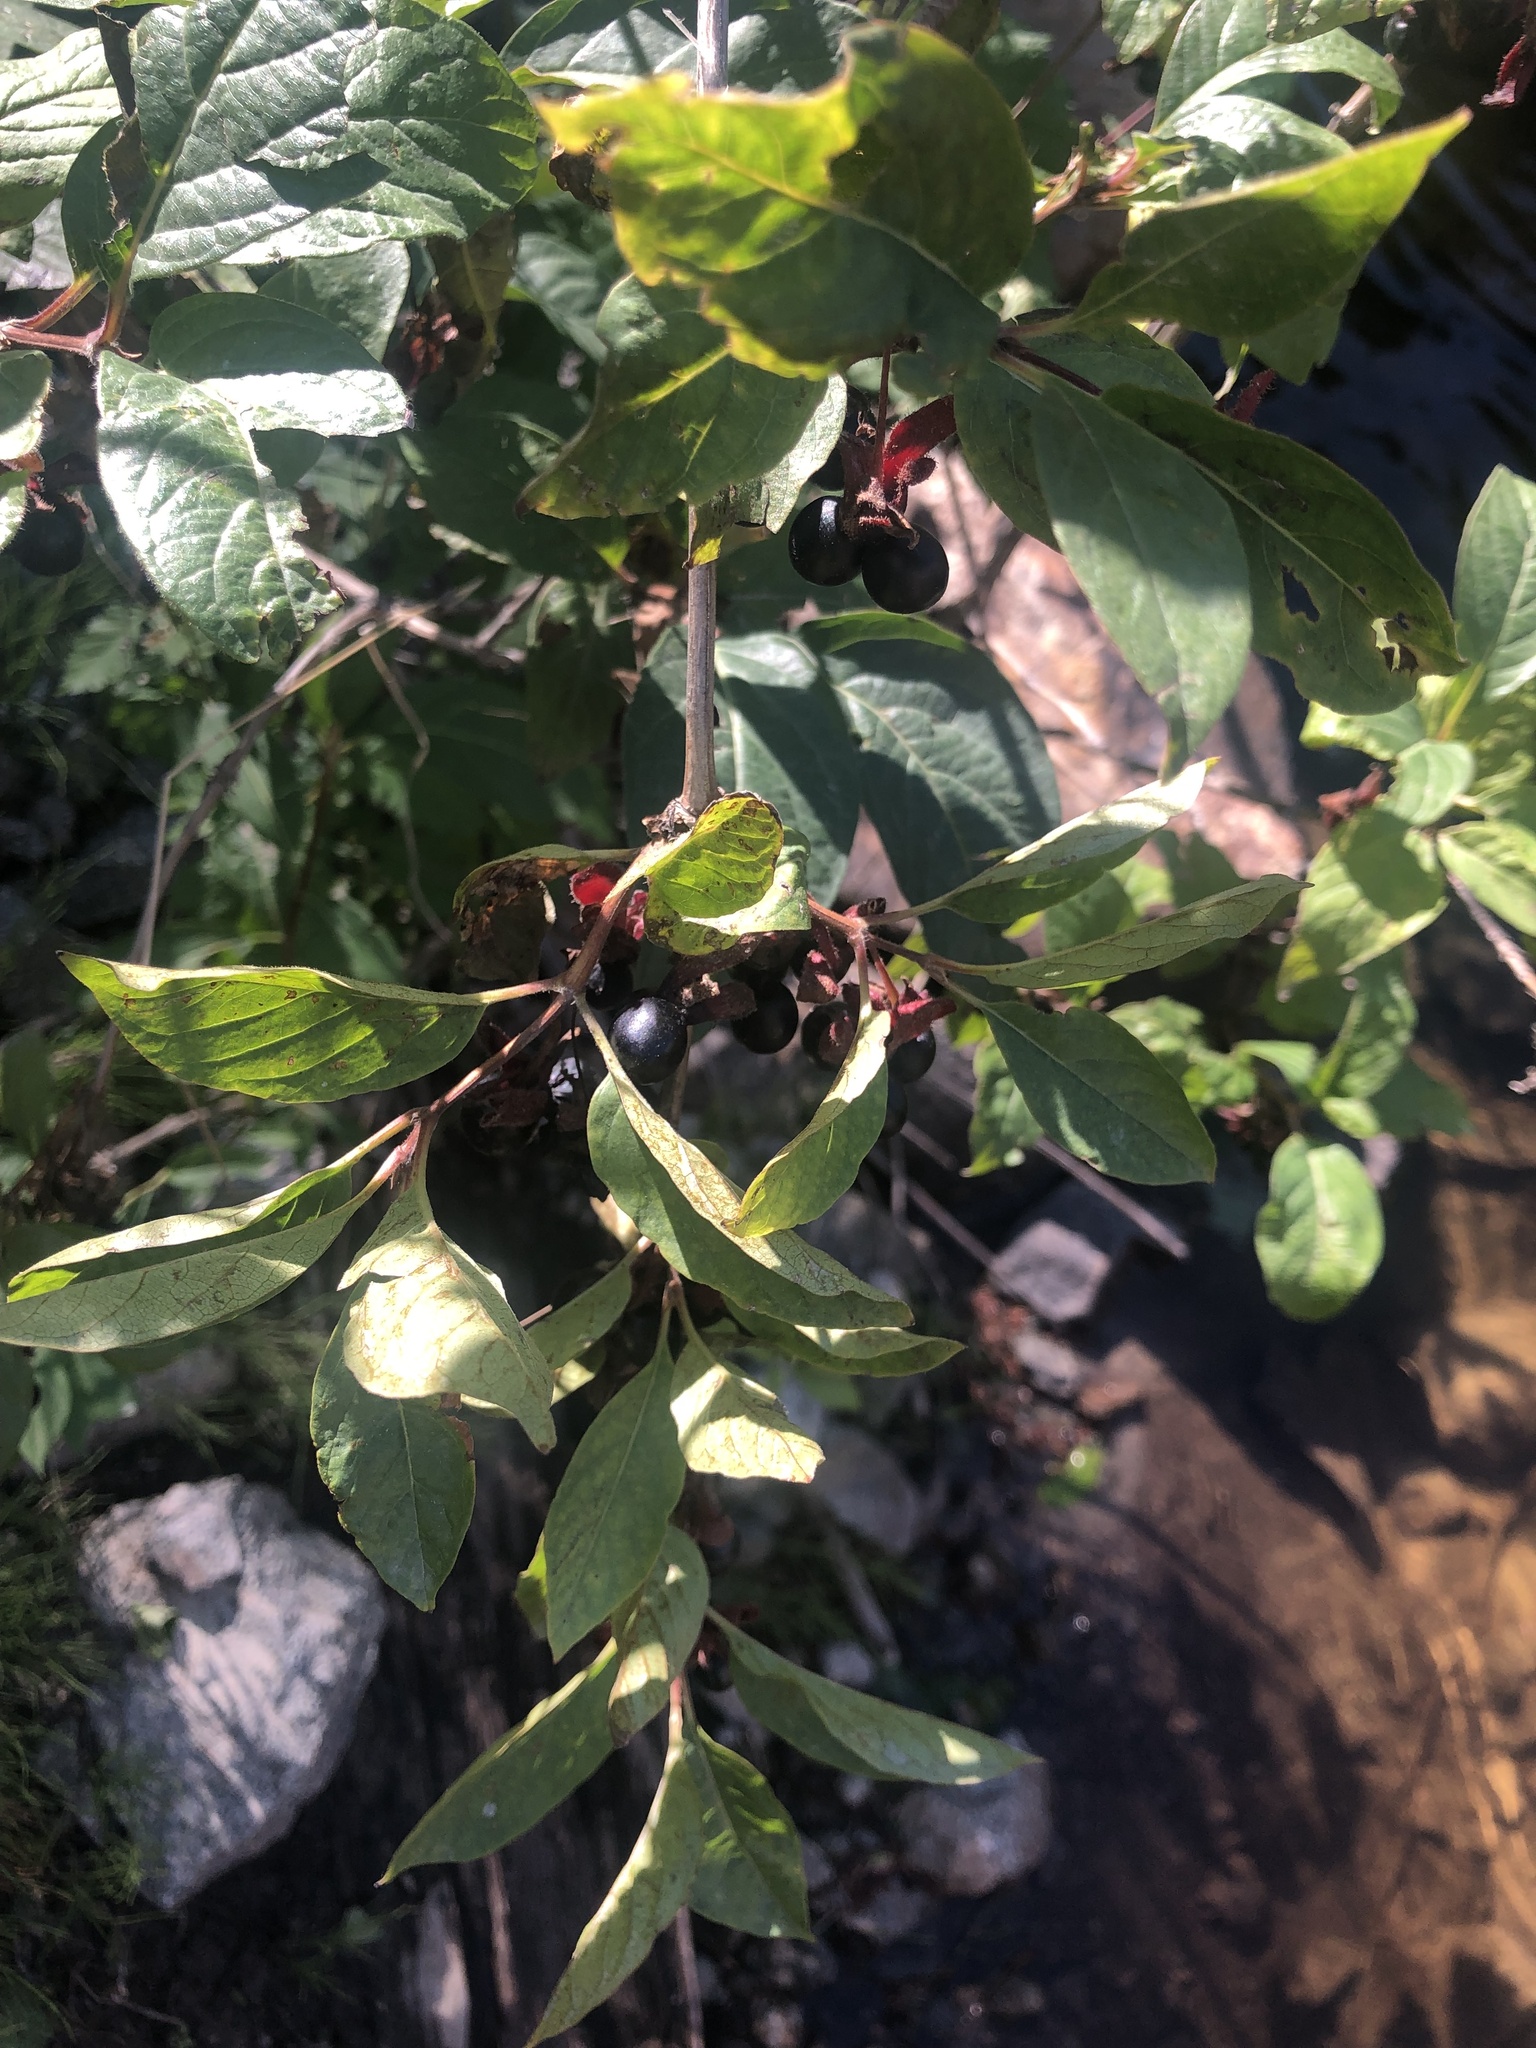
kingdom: Plantae
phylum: Tracheophyta
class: Magnoliopsida
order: Dipsacales
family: Caprifoliaceae
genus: Lonicera
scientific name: Lonicera involucrata
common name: Californian honeysuckle
